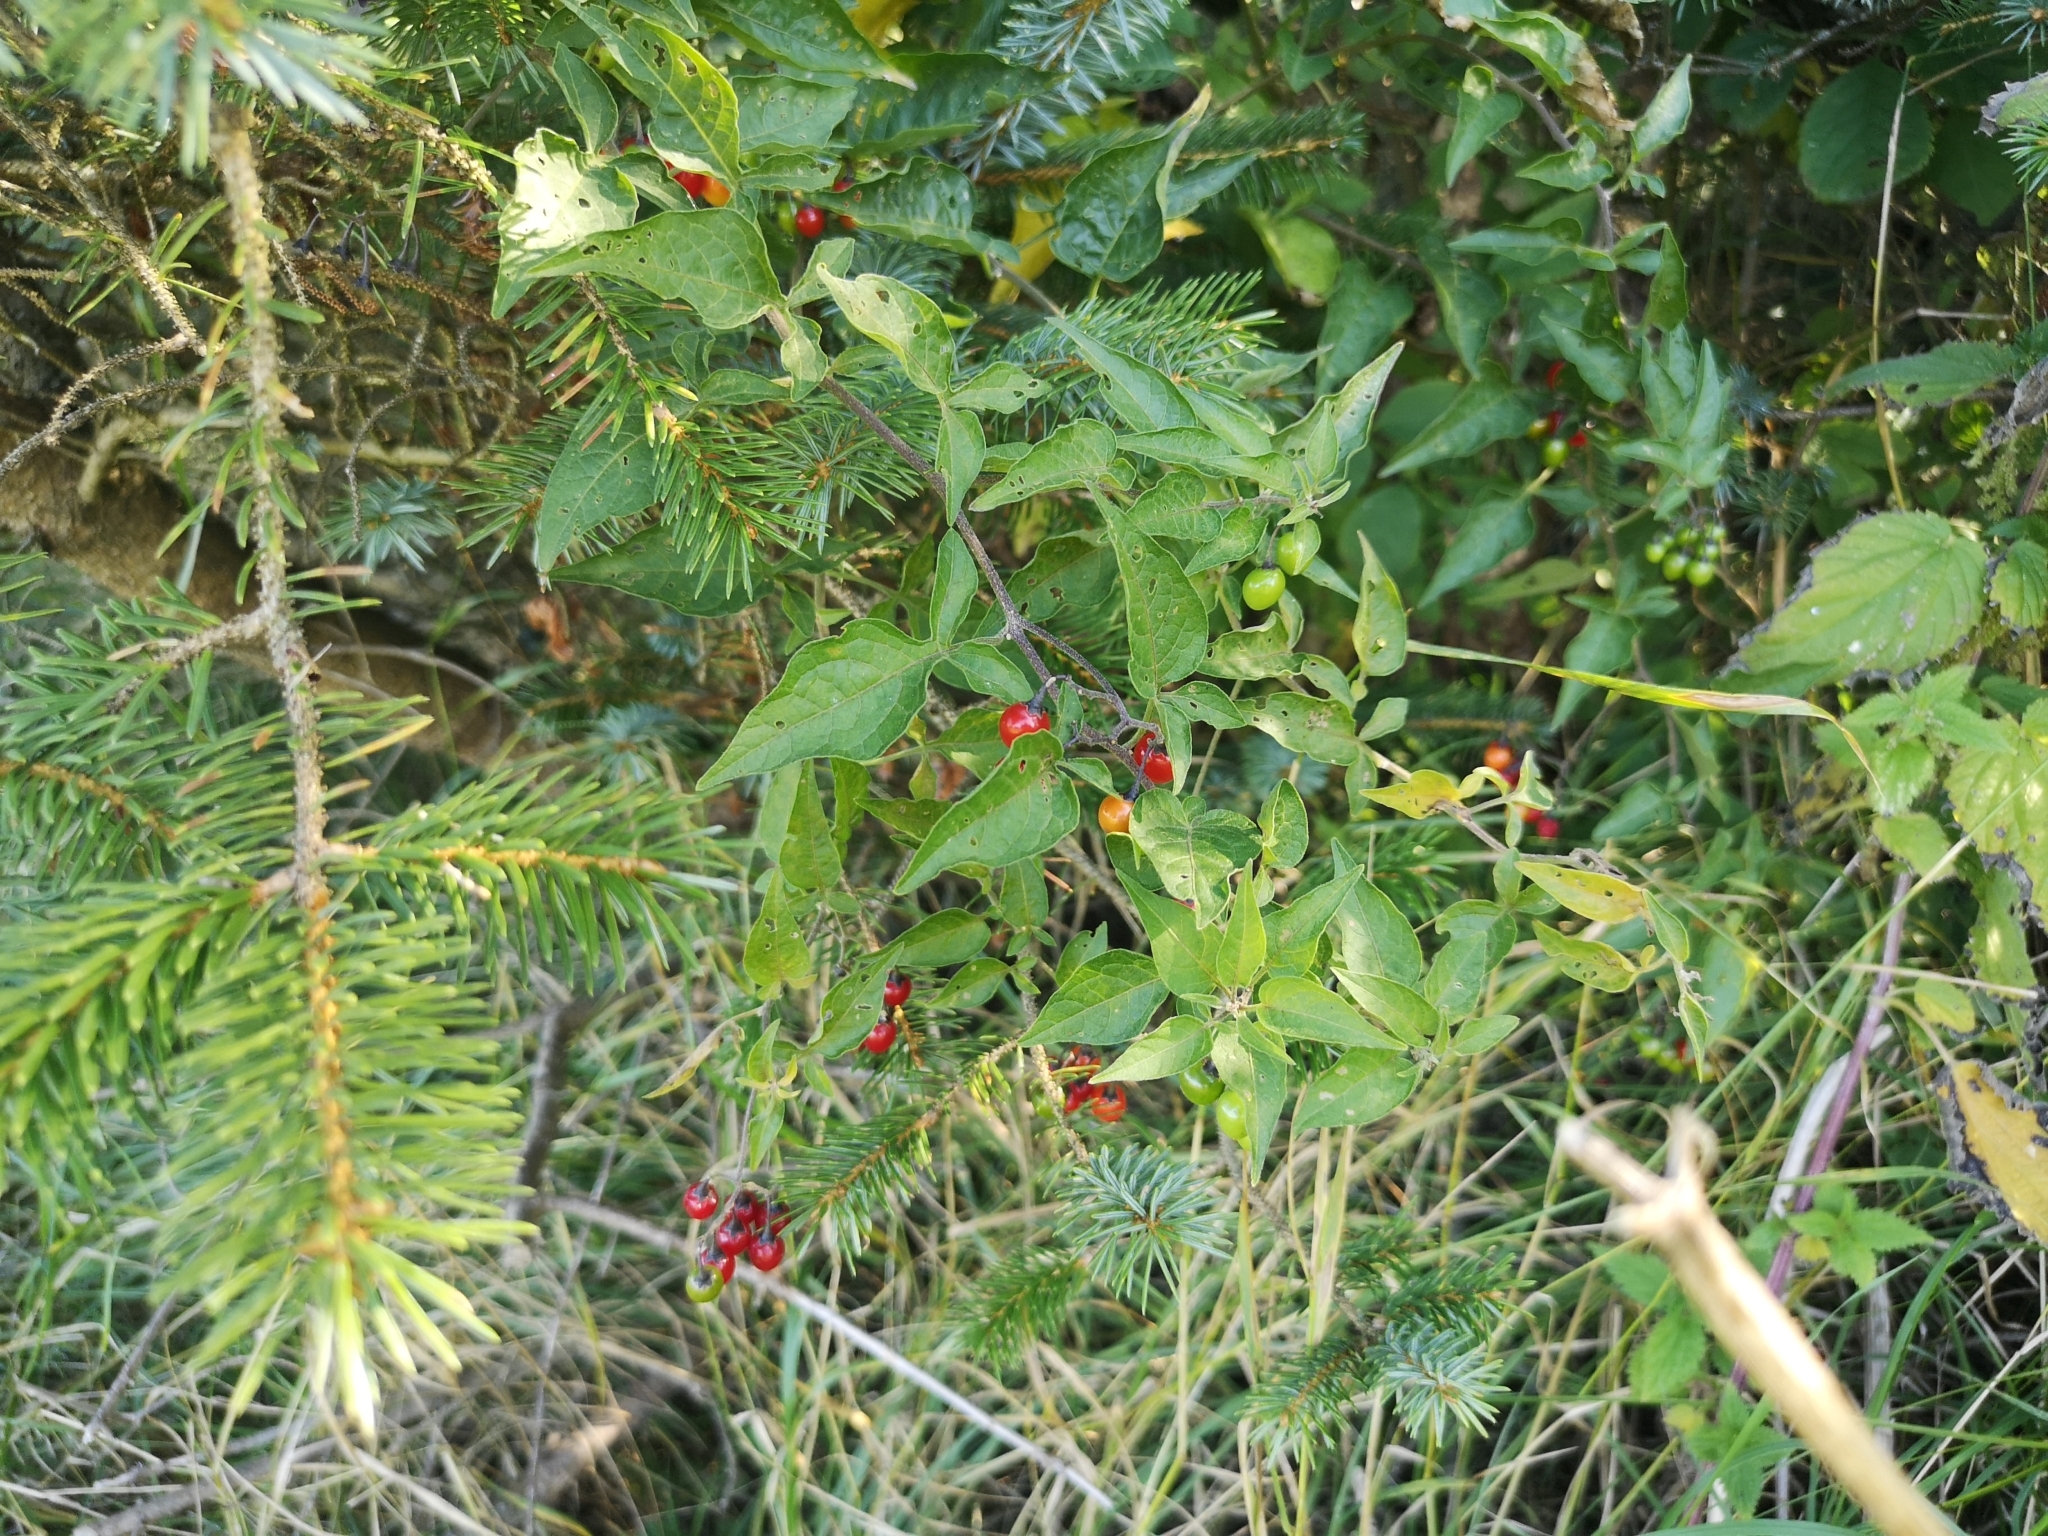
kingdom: Plantae
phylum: Tracheophyta
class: Magnoliopsida
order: Solanales
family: Solanaceae
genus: Solanum
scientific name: Solanum dulcamara
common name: Climbing nightshade
